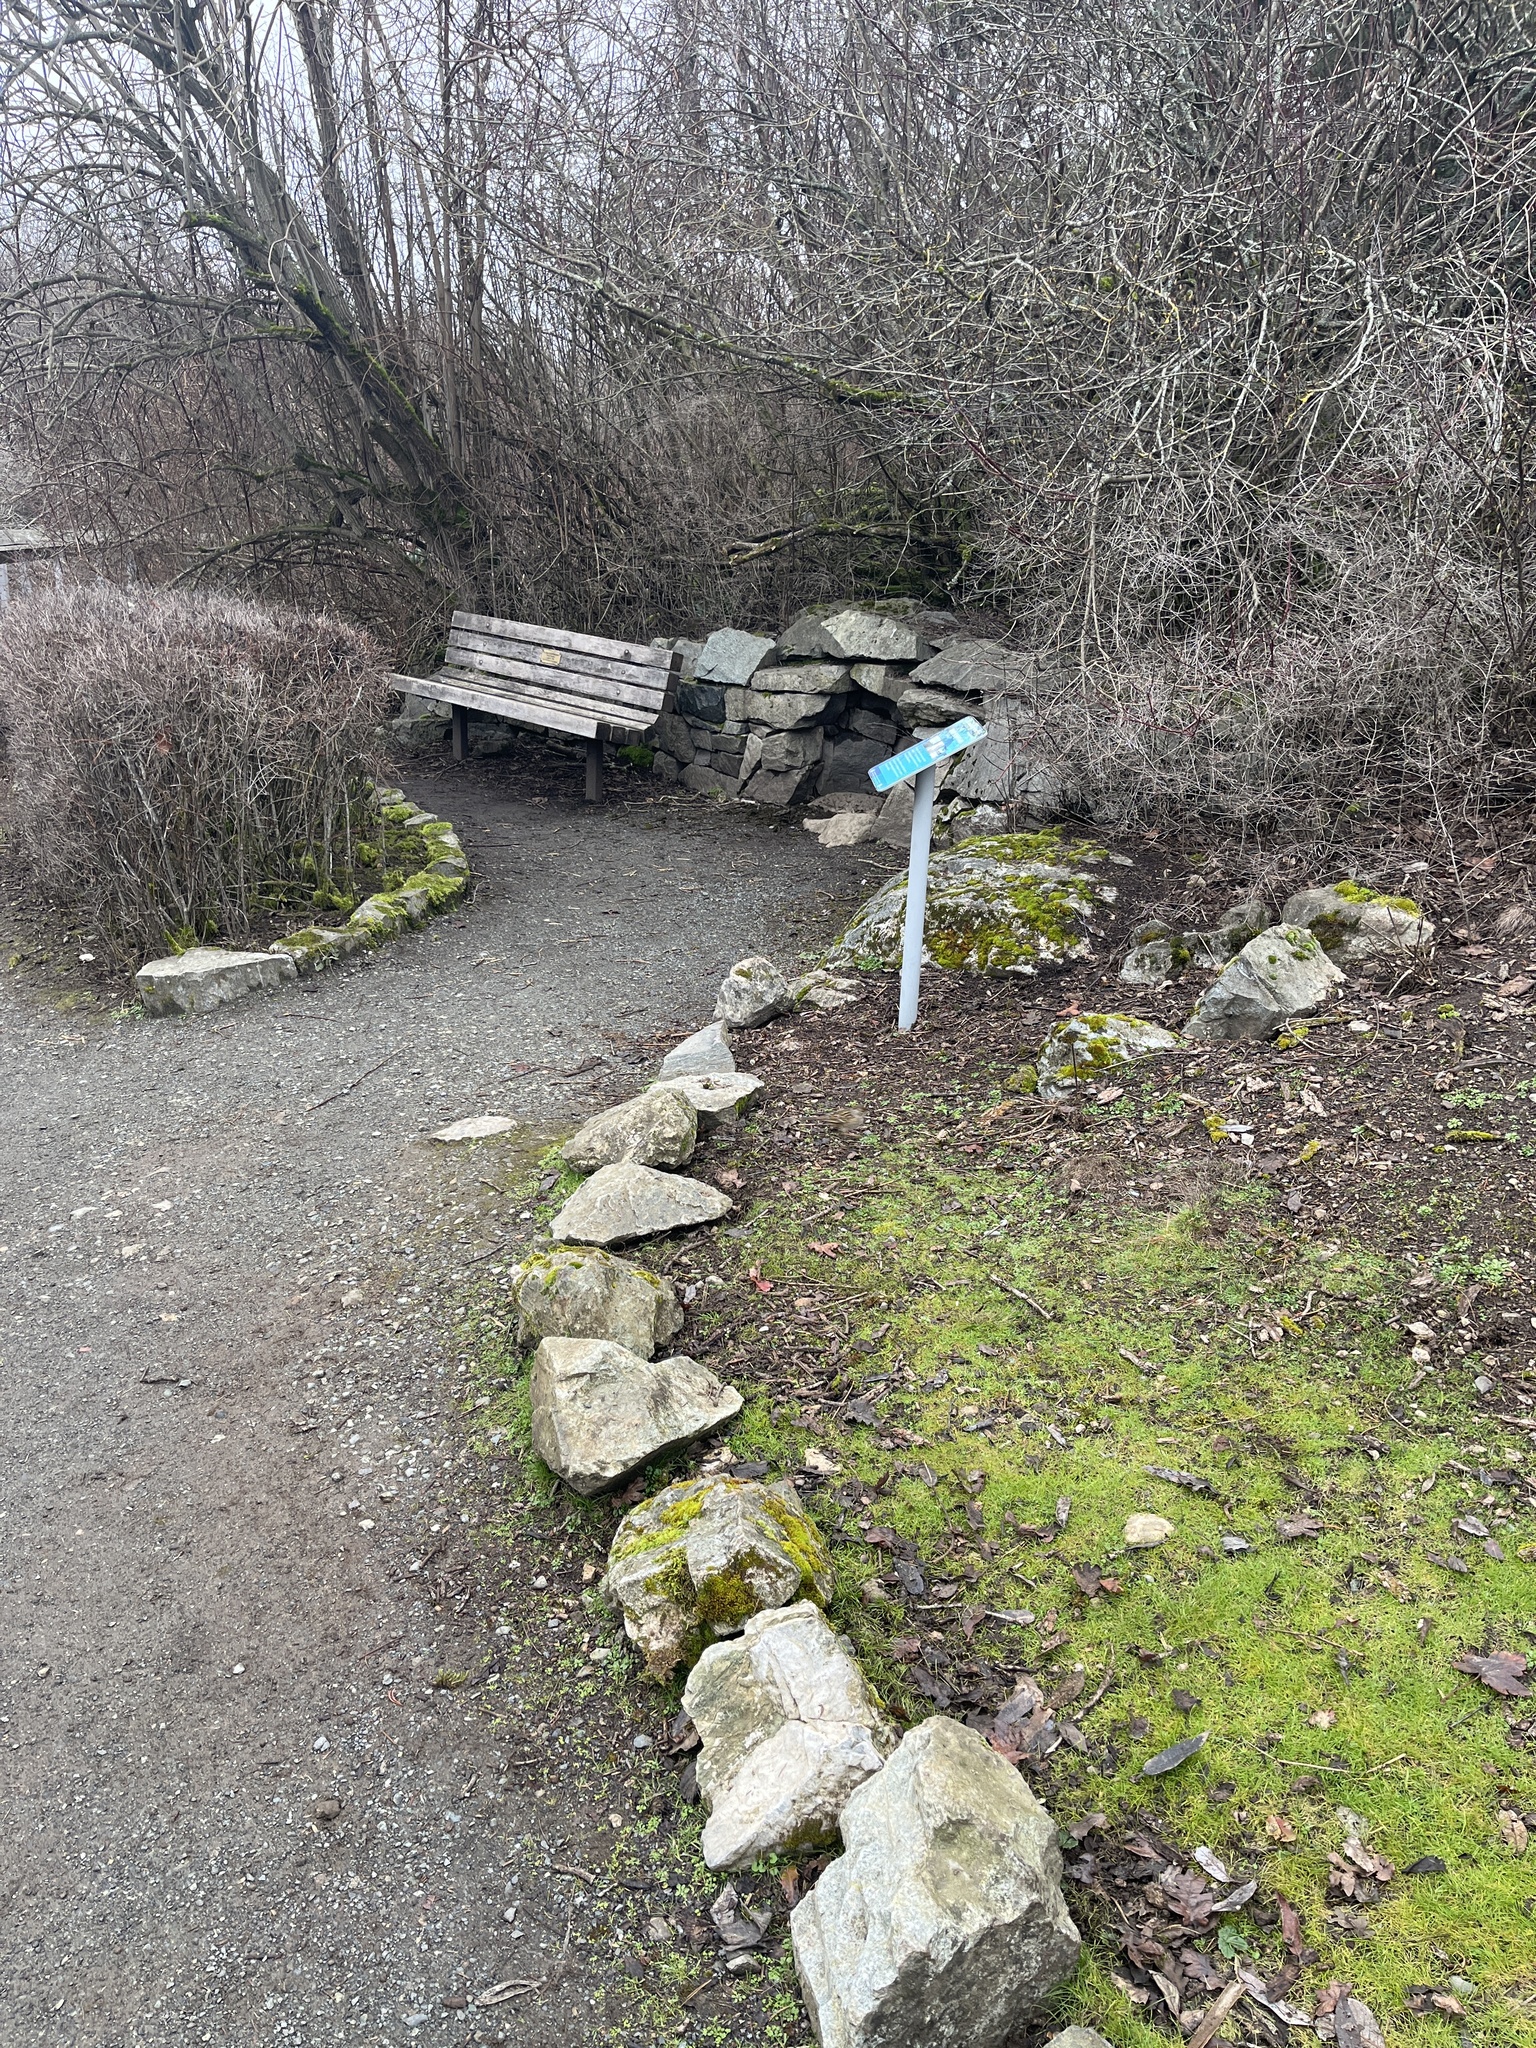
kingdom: Animalia
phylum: Chordata
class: Aves
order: Passeriformes
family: Passerellidae
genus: Zonotrichia
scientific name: Zonotrichia atricapilla
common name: Golden-crowned sparrow
